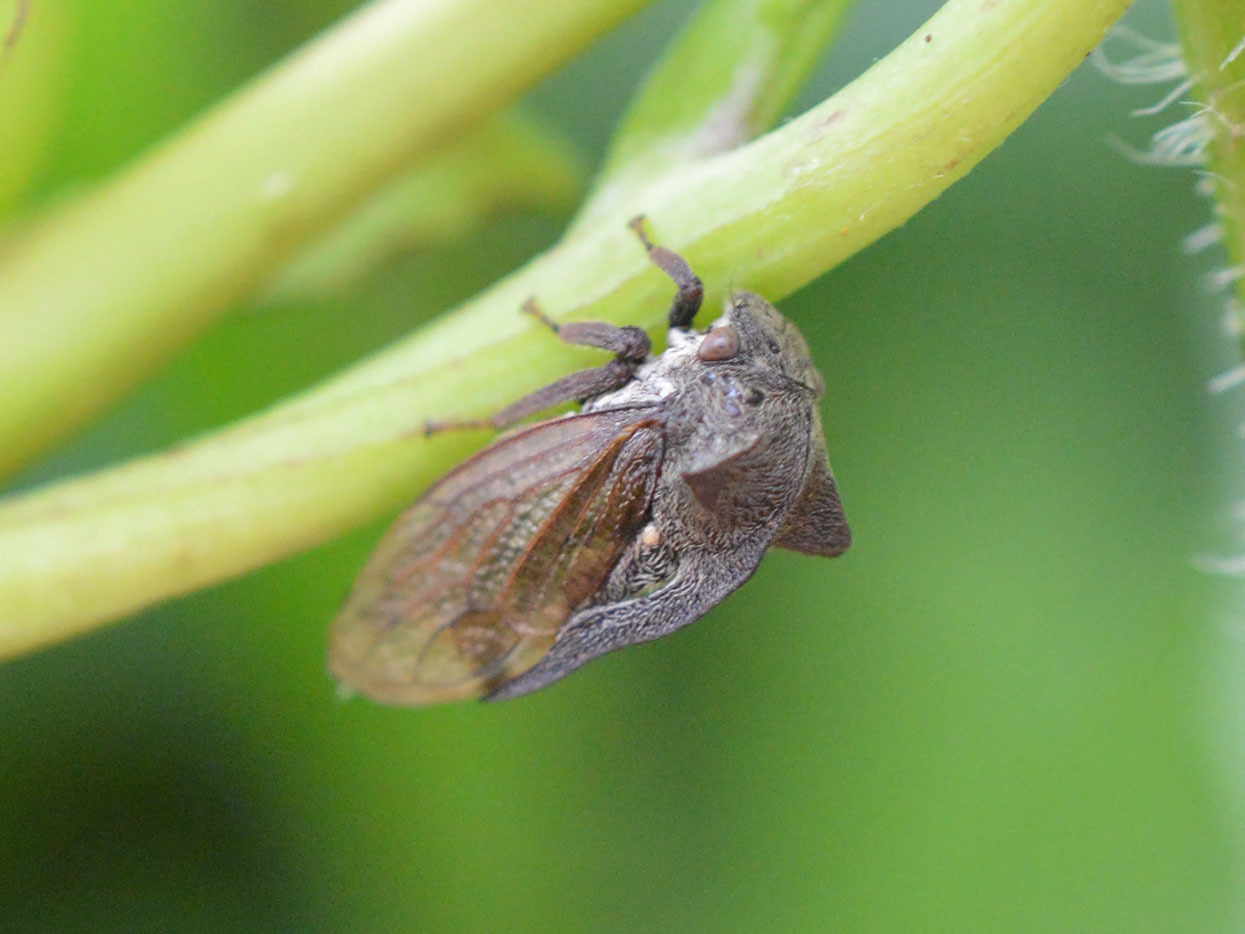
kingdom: Animalia
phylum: Arthropoda
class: Insecta
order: Hemiptera
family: Membracidae
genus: Centrotus
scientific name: Centrotus cornuta
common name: Treehopper
